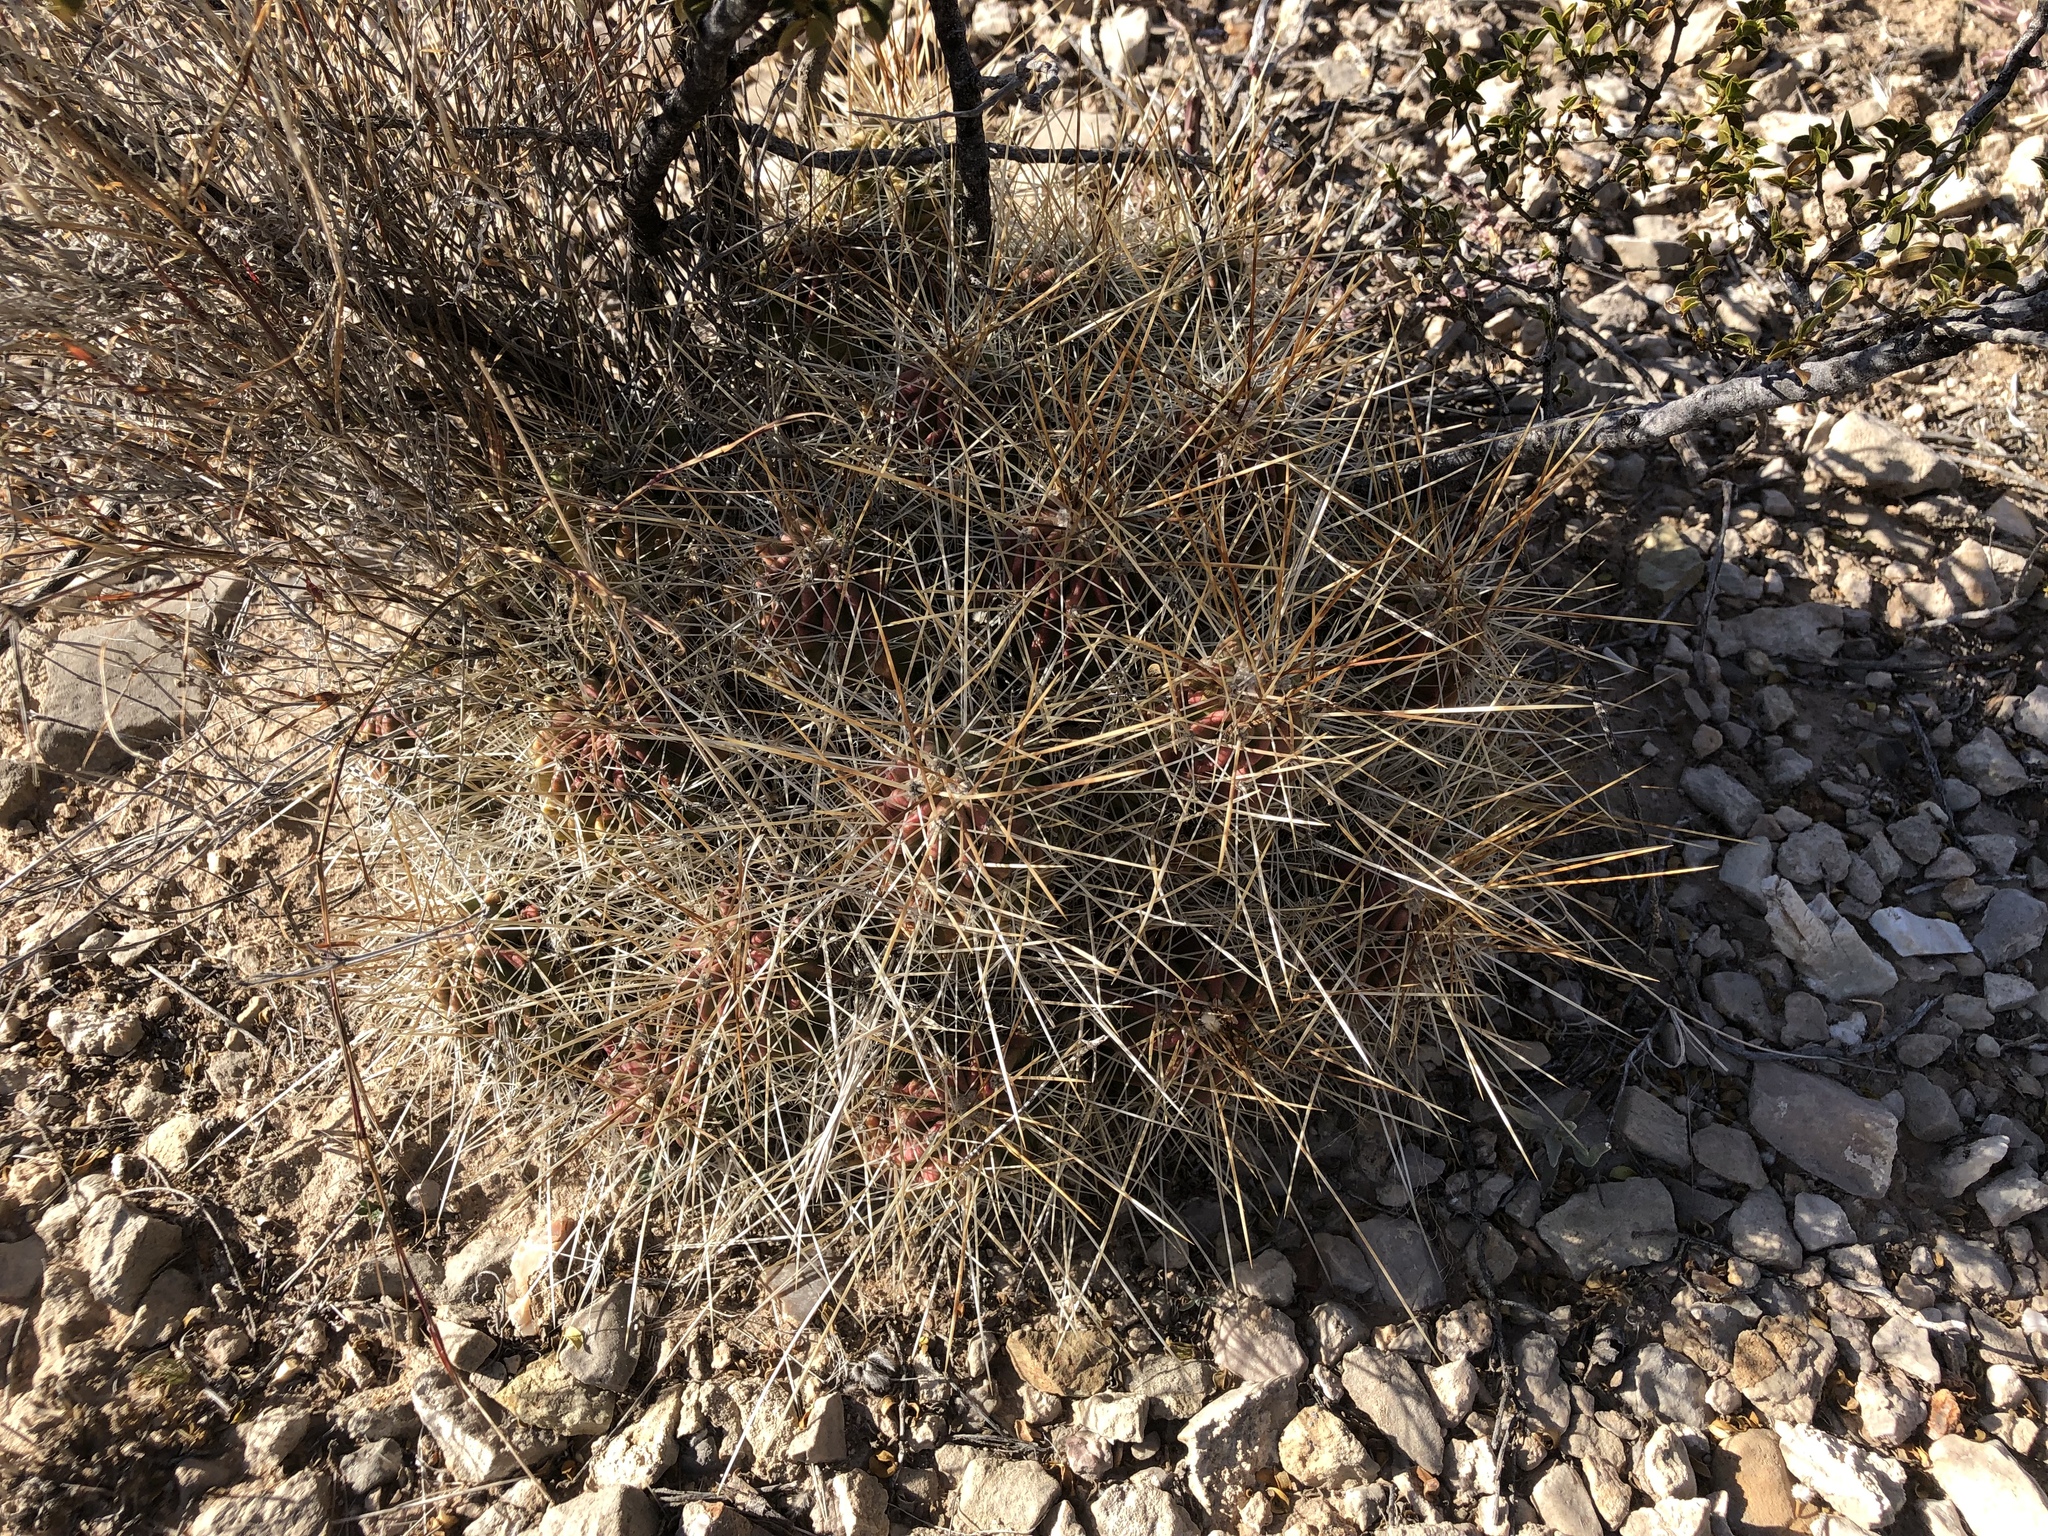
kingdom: Plantae
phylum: Tracheophyta
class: Magnoliopsida
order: Caryophyllales
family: Cactaceae
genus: Echinocereus
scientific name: Echinocereus stramineus
